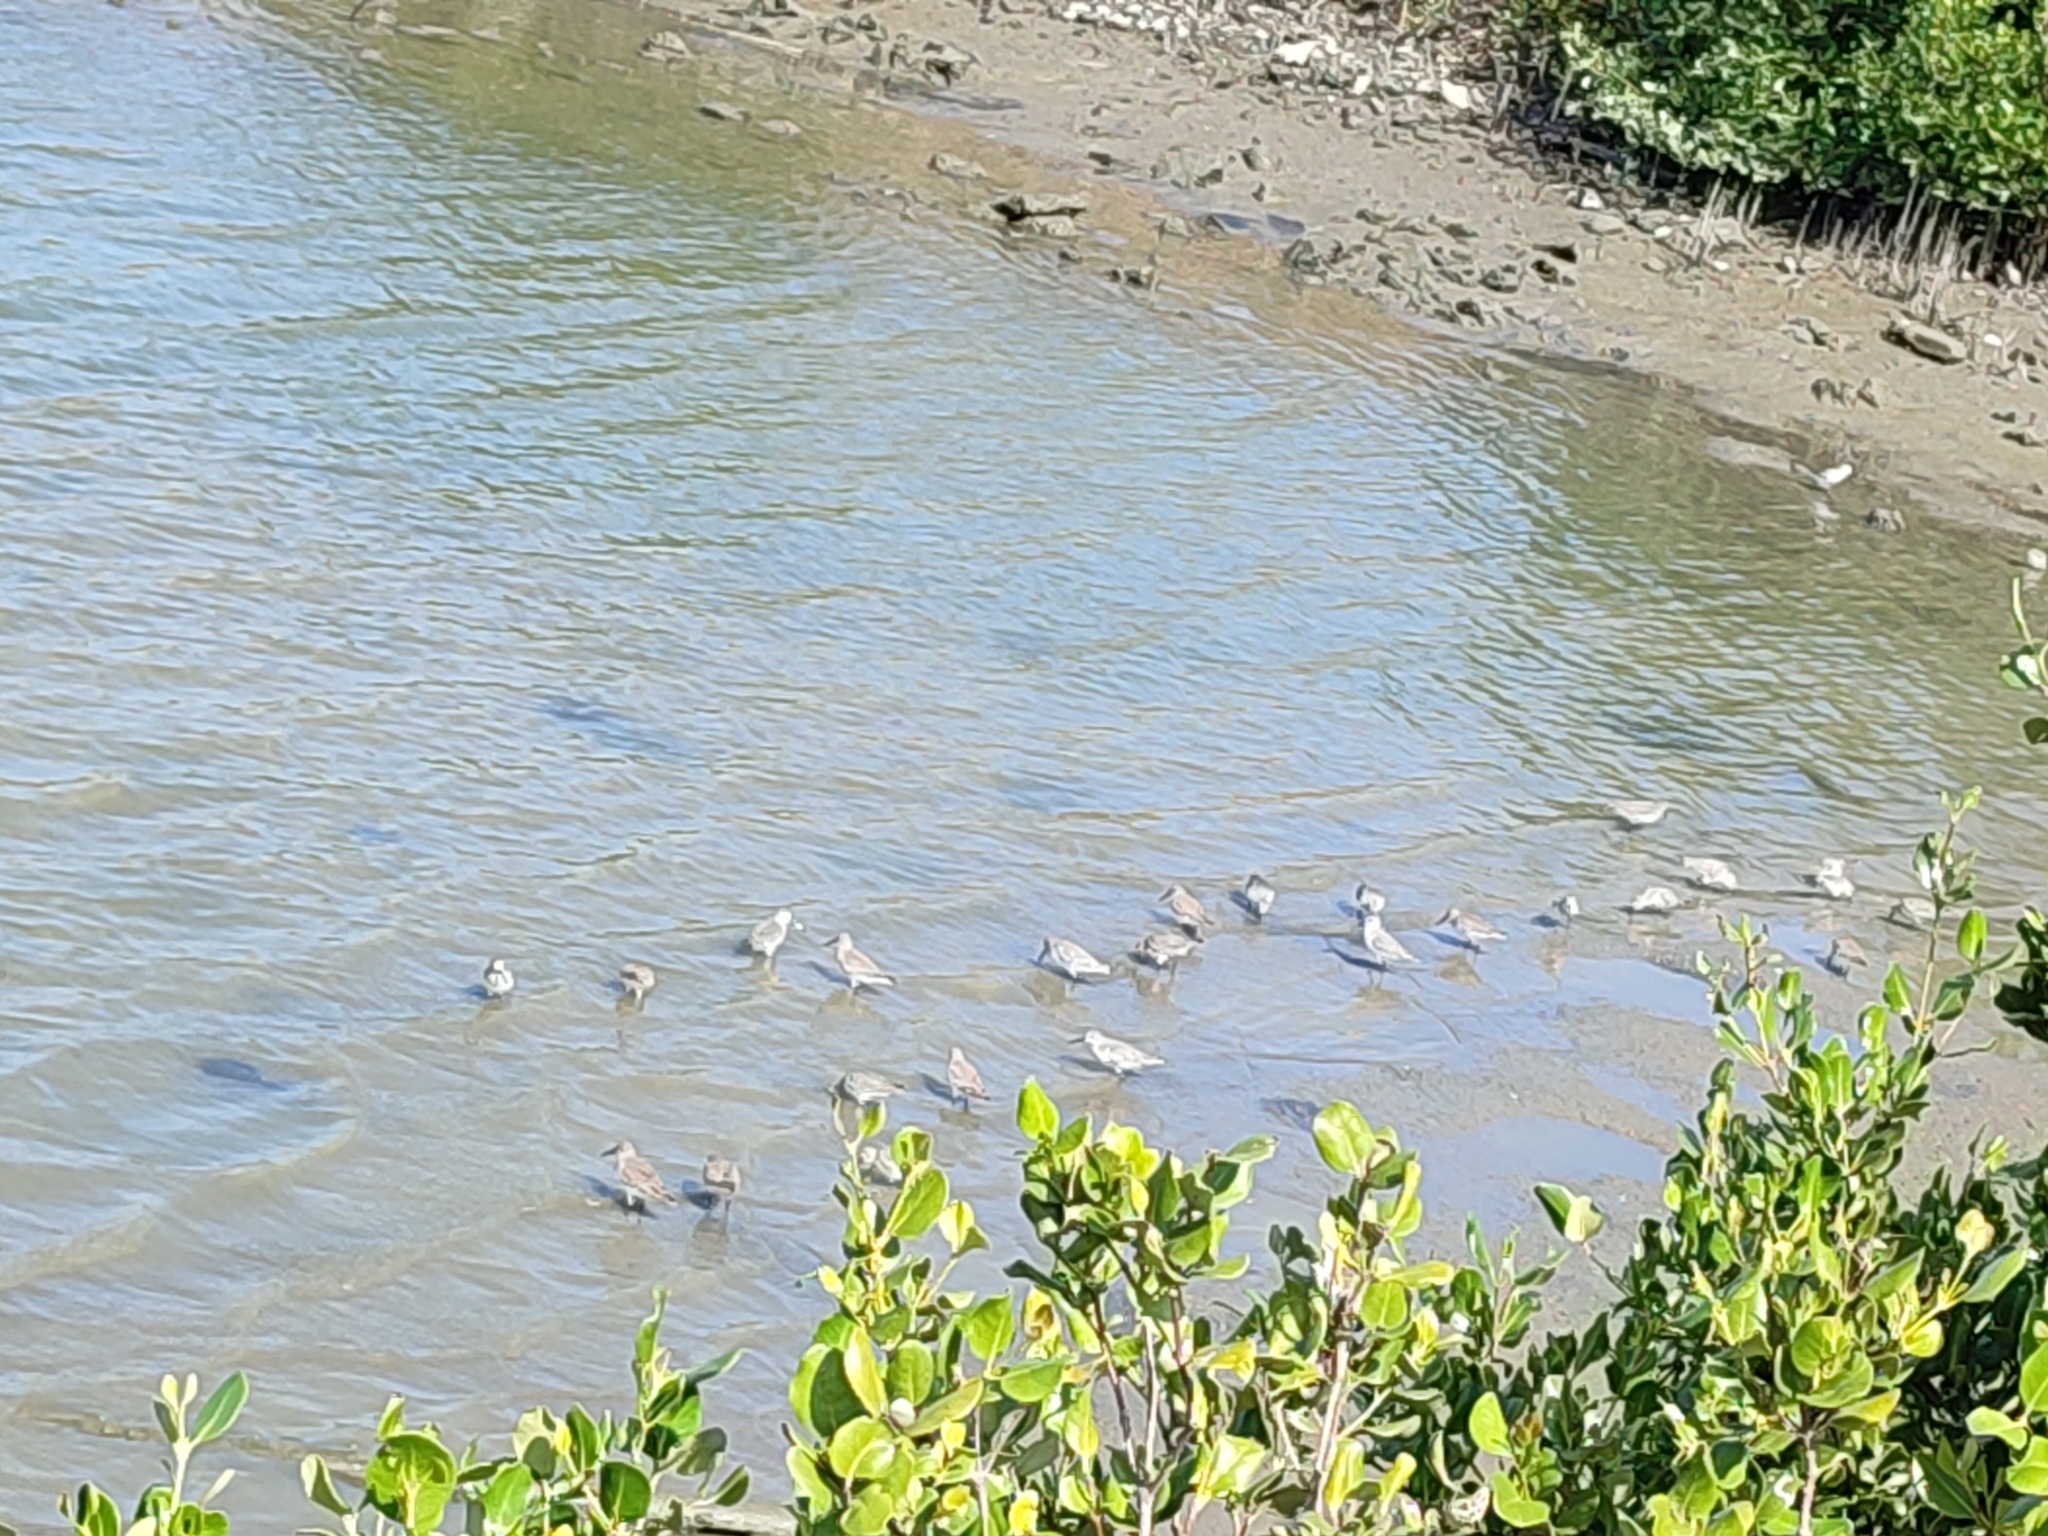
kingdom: Animalia
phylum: Chordata
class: Aves
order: Charadriiformes
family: Scolopacidae
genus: Calidris
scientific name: Calidris alpina
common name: Dunlin
